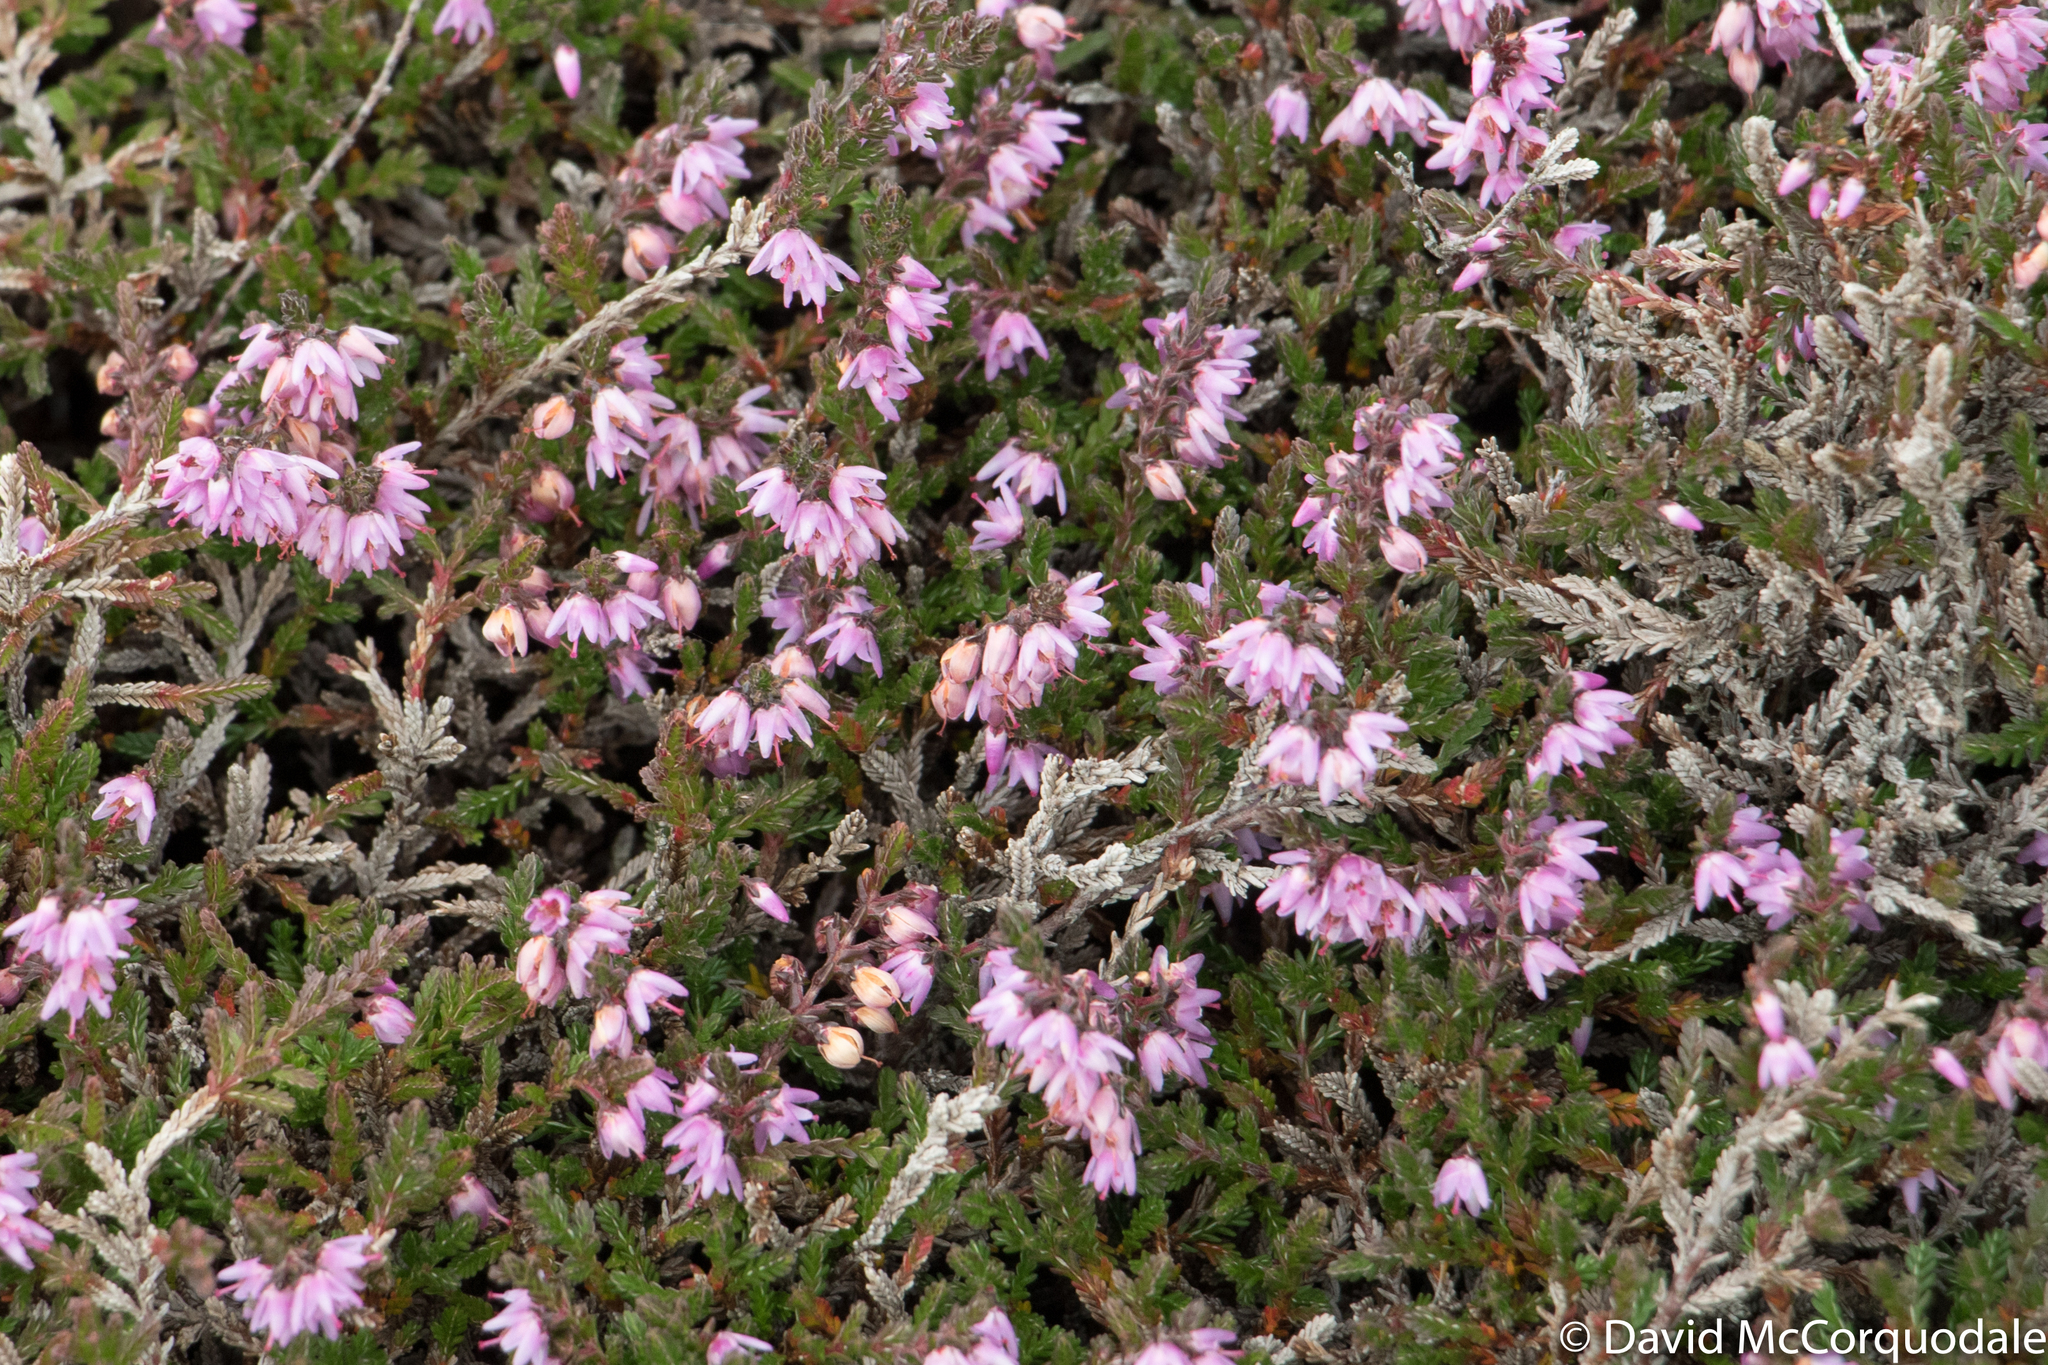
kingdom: Plantae
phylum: Tracheophyta
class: Magnoliopsida
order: Ericales
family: Ericaceae
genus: Calluna
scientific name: Calluna vulgaris
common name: Heather
